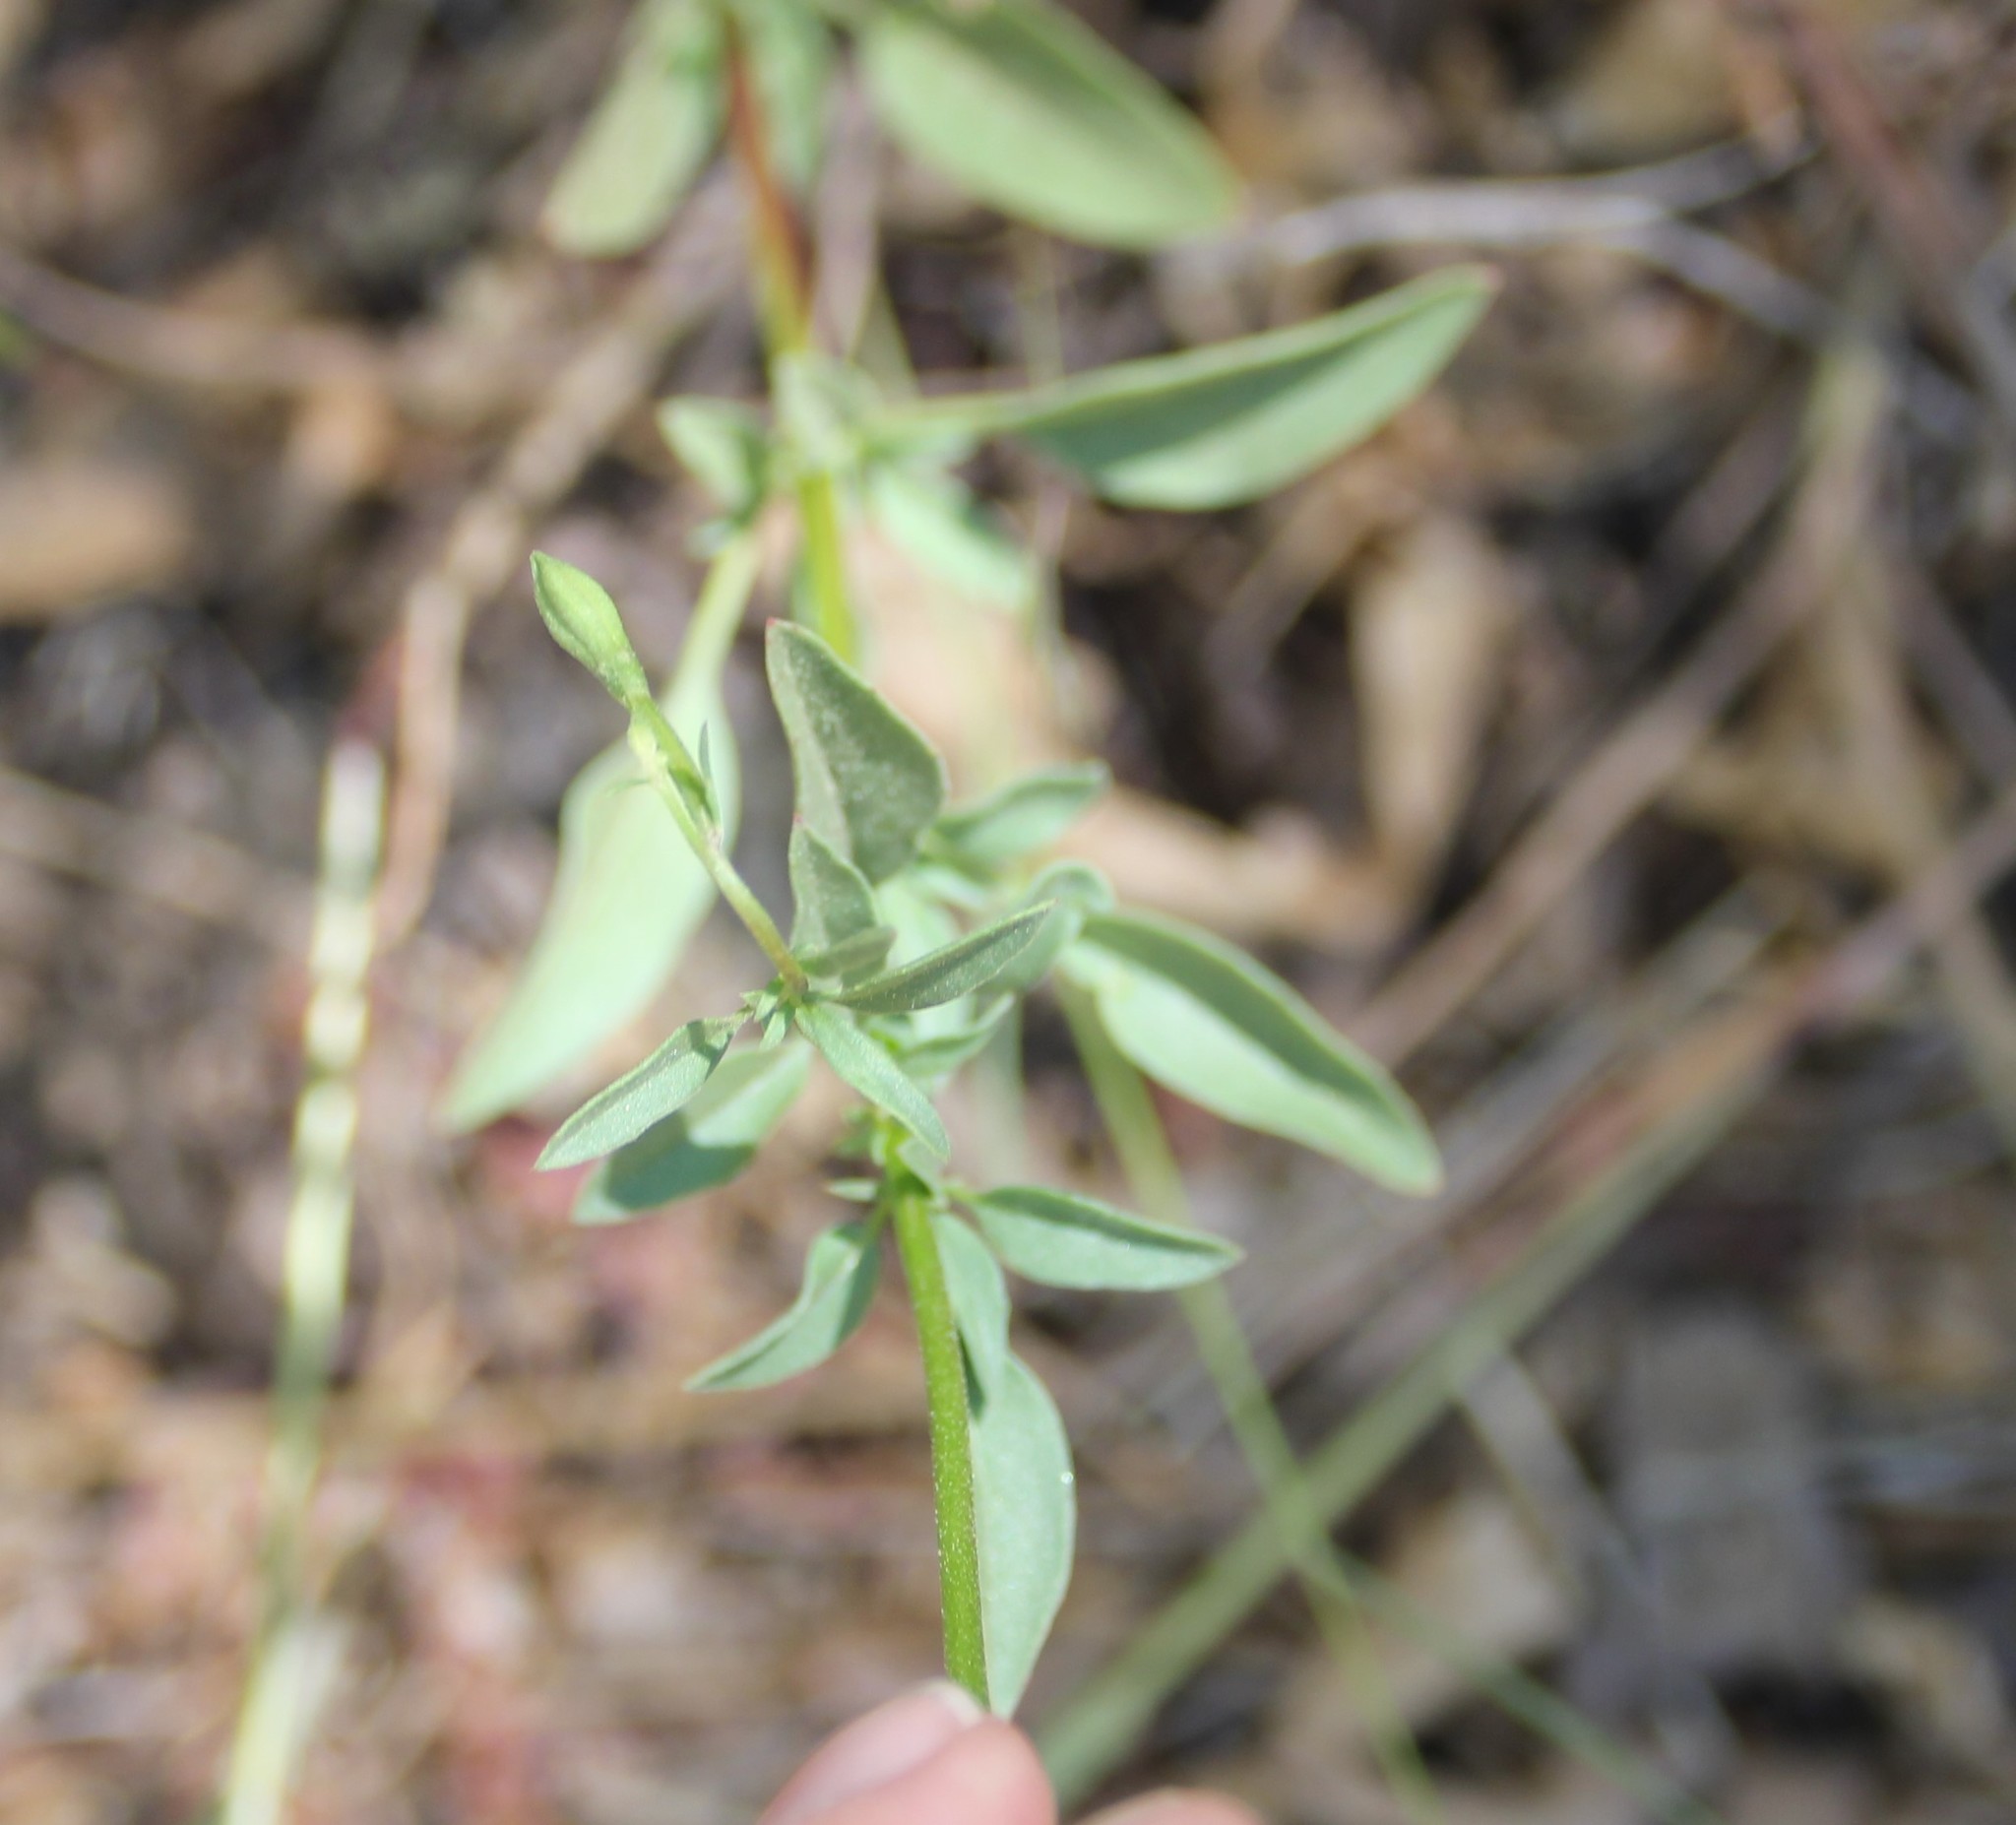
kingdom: Plantae
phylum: Tracheophyta
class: Magnoliopsida
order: Myrtales
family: Onagraceae
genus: Clarkia
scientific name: Clarkia rhomboidea
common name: Broadleaf clarkia
